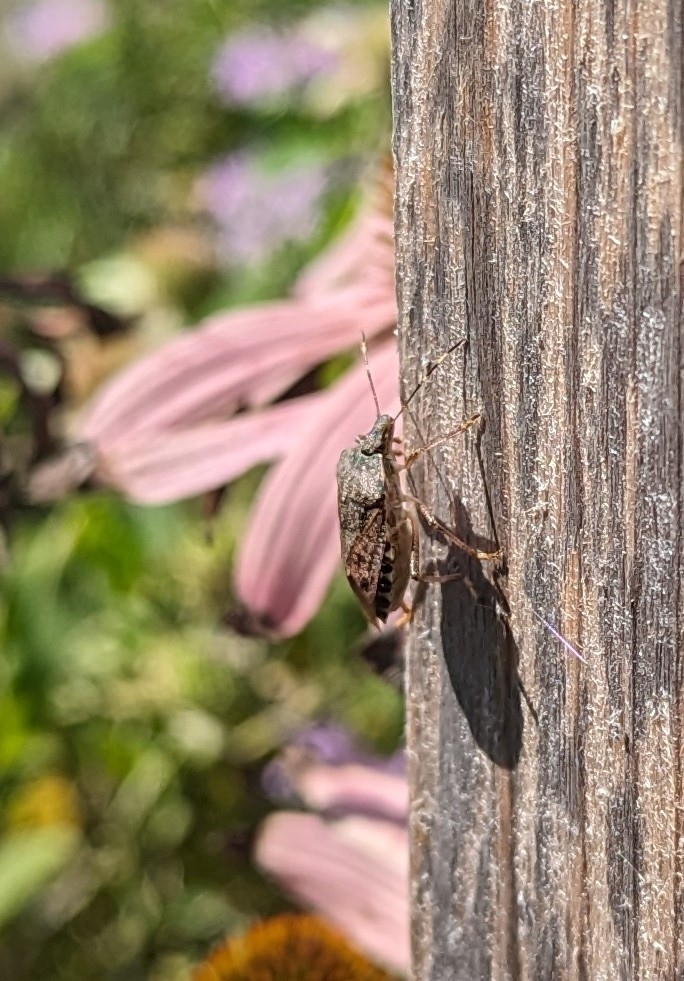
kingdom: Animalia
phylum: Arthropoda
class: Insecta
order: Hemiptera
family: Pentatomidae
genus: Halyomorpha
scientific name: Halyomorpha halys
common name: Brown marmorated stink bug
